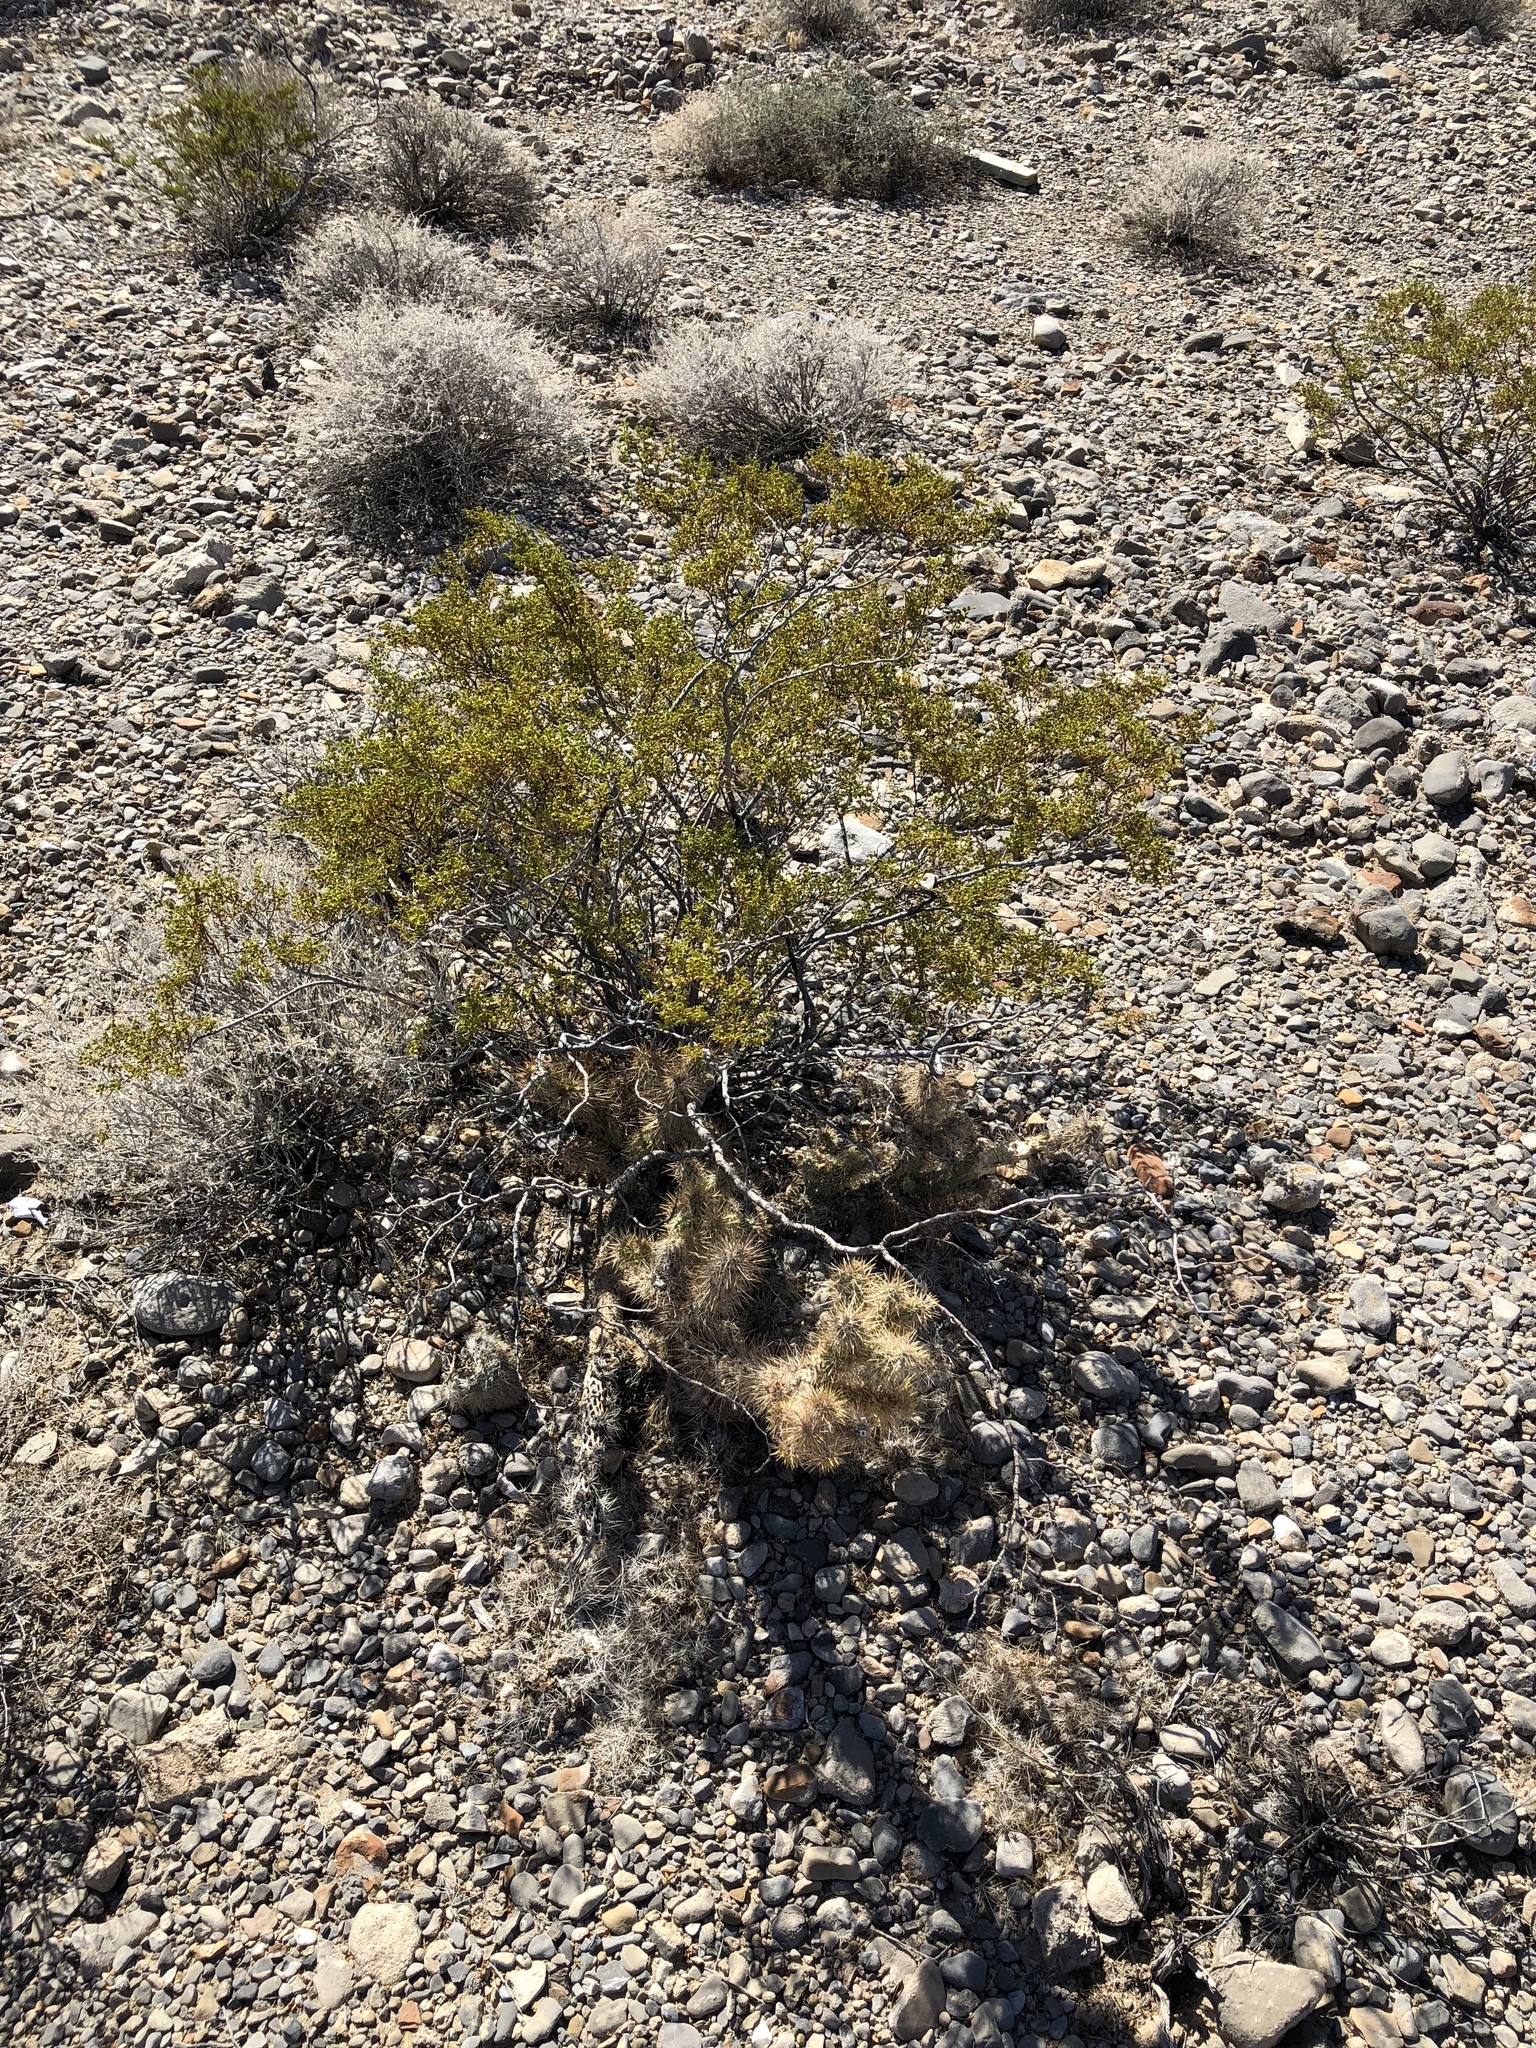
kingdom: Plantae
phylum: Tracheophyta
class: Magnoliopsida
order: Caryophyllales
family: Cactaceae
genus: Cylindropuntia
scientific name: Cylindropuntia echinocarpa
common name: Ground cholla
